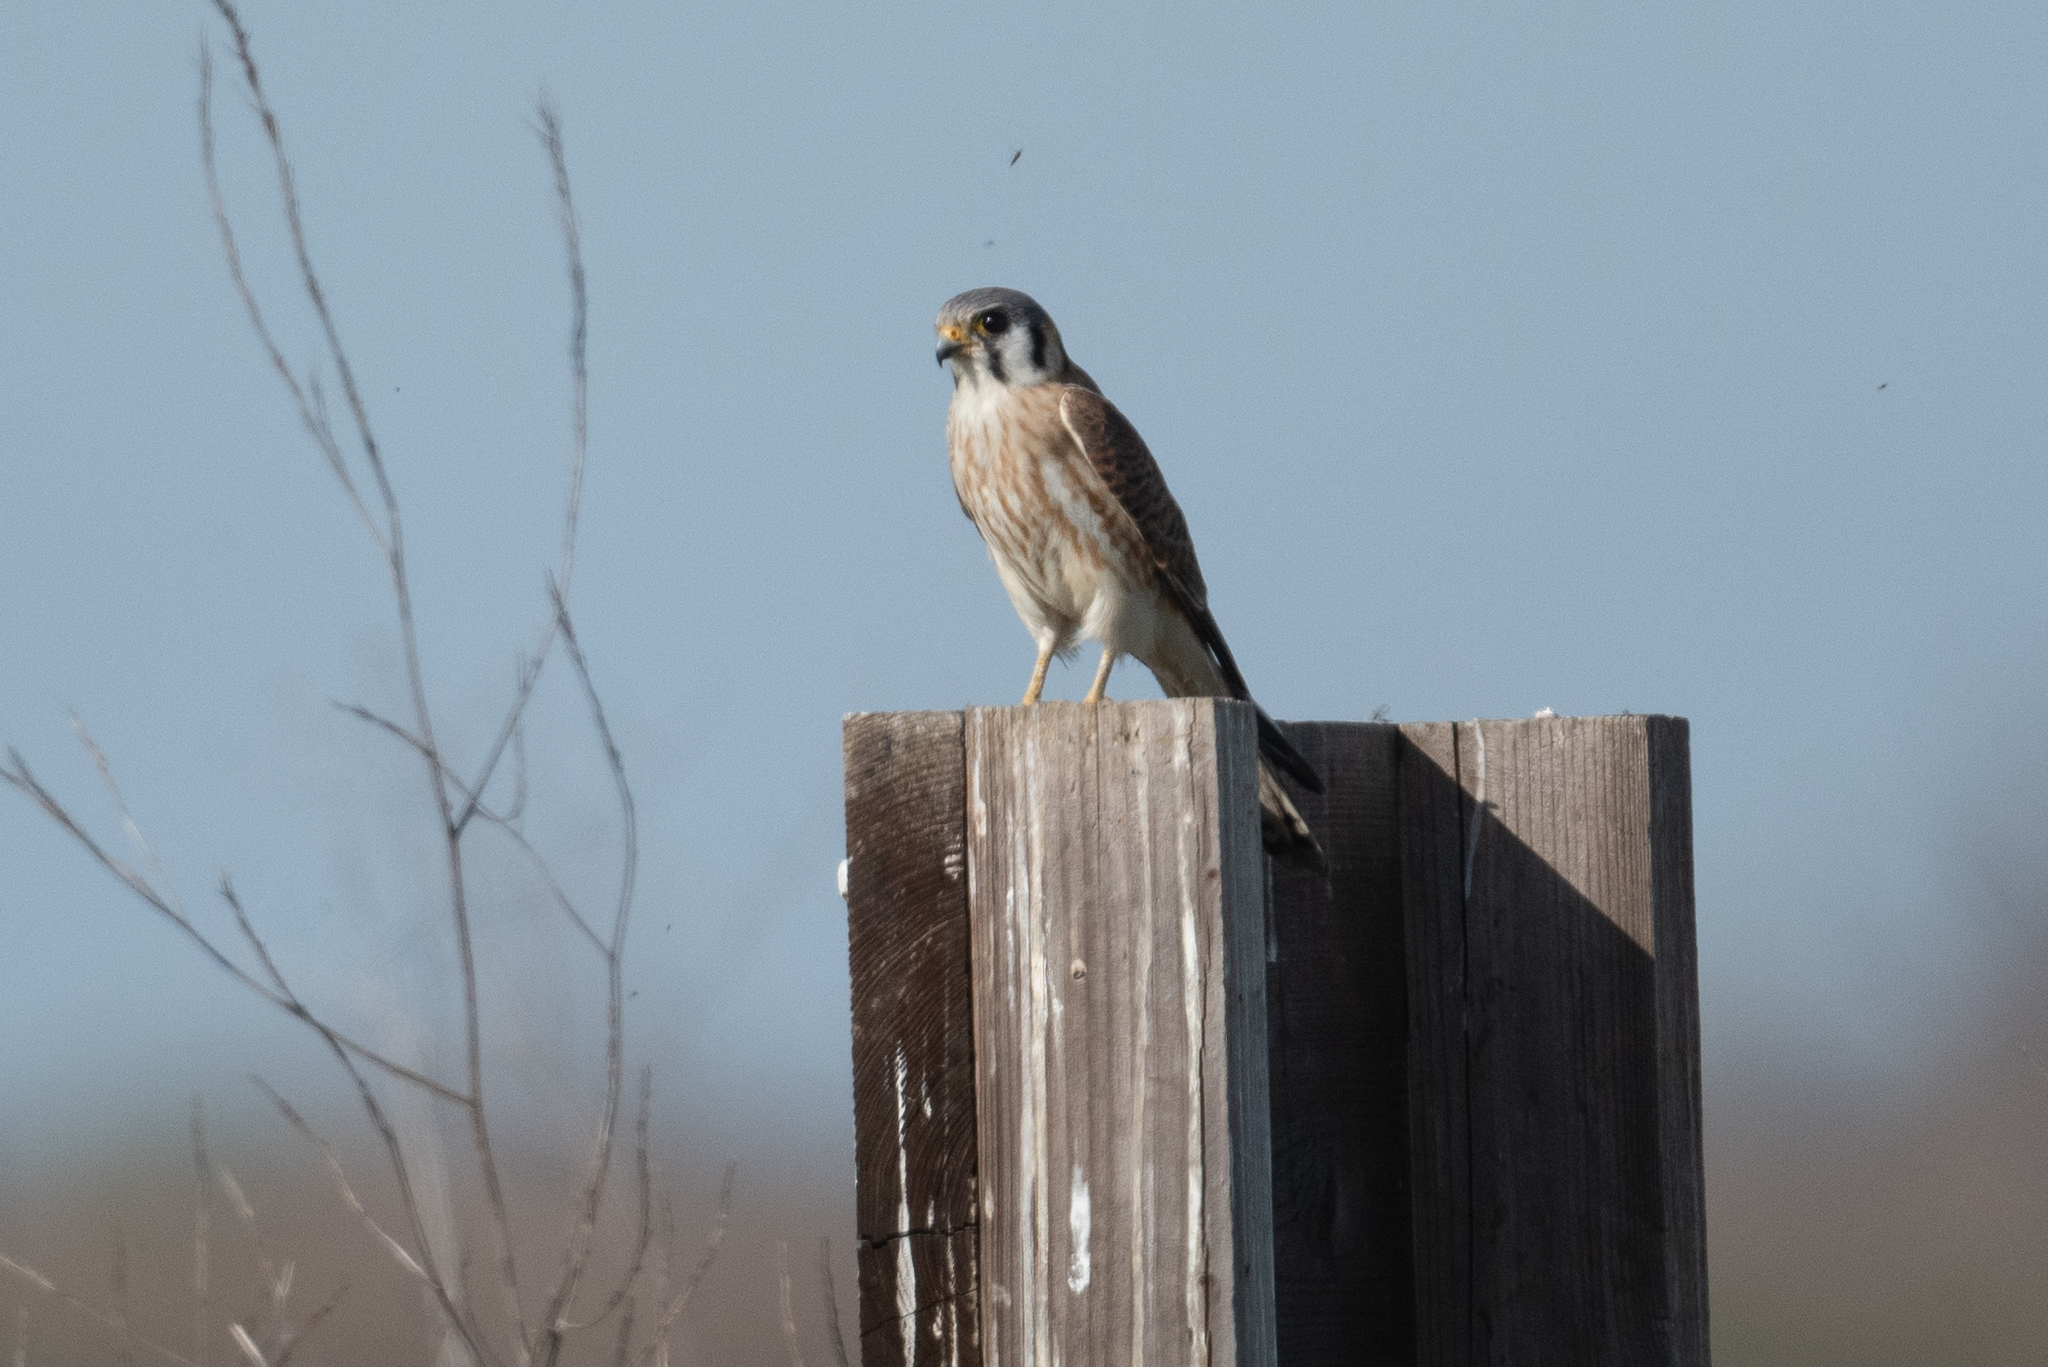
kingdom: Animalia
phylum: Chordata
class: Aves
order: Falconiformes
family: Falconidae
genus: Falco
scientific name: Falco sparverius
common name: American kestrel
